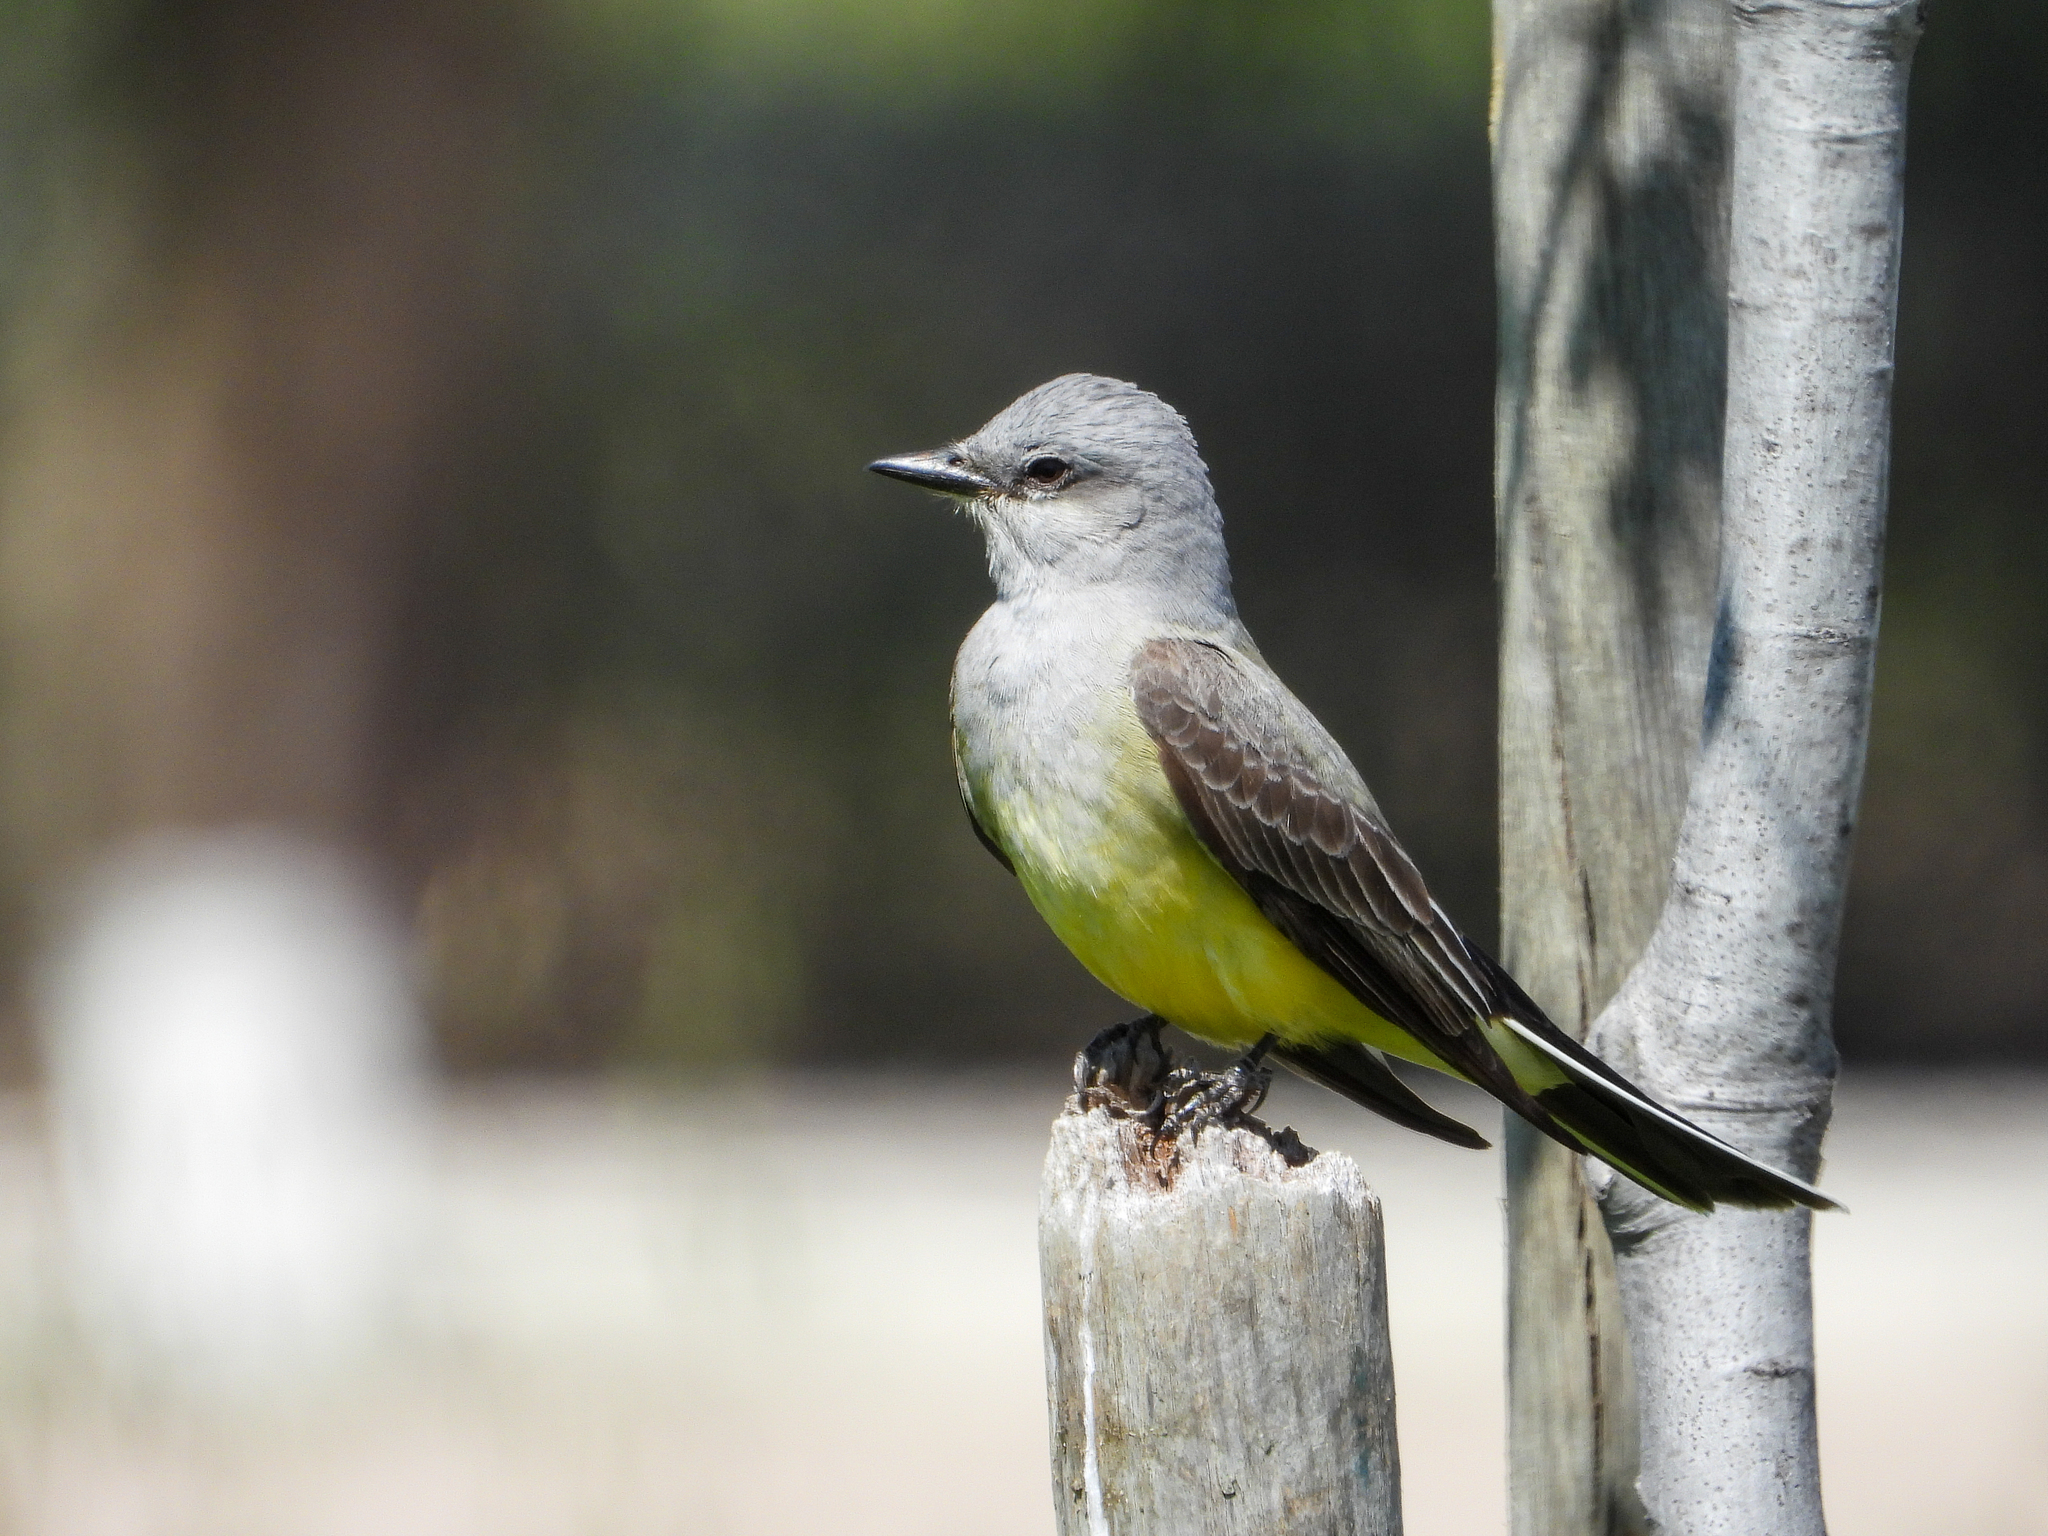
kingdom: Animalia
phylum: Chordata
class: Aves
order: Passeriformes
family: Tyrannidae
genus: Tyrannus
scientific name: Tyrannus verticalis
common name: Western kingbird
